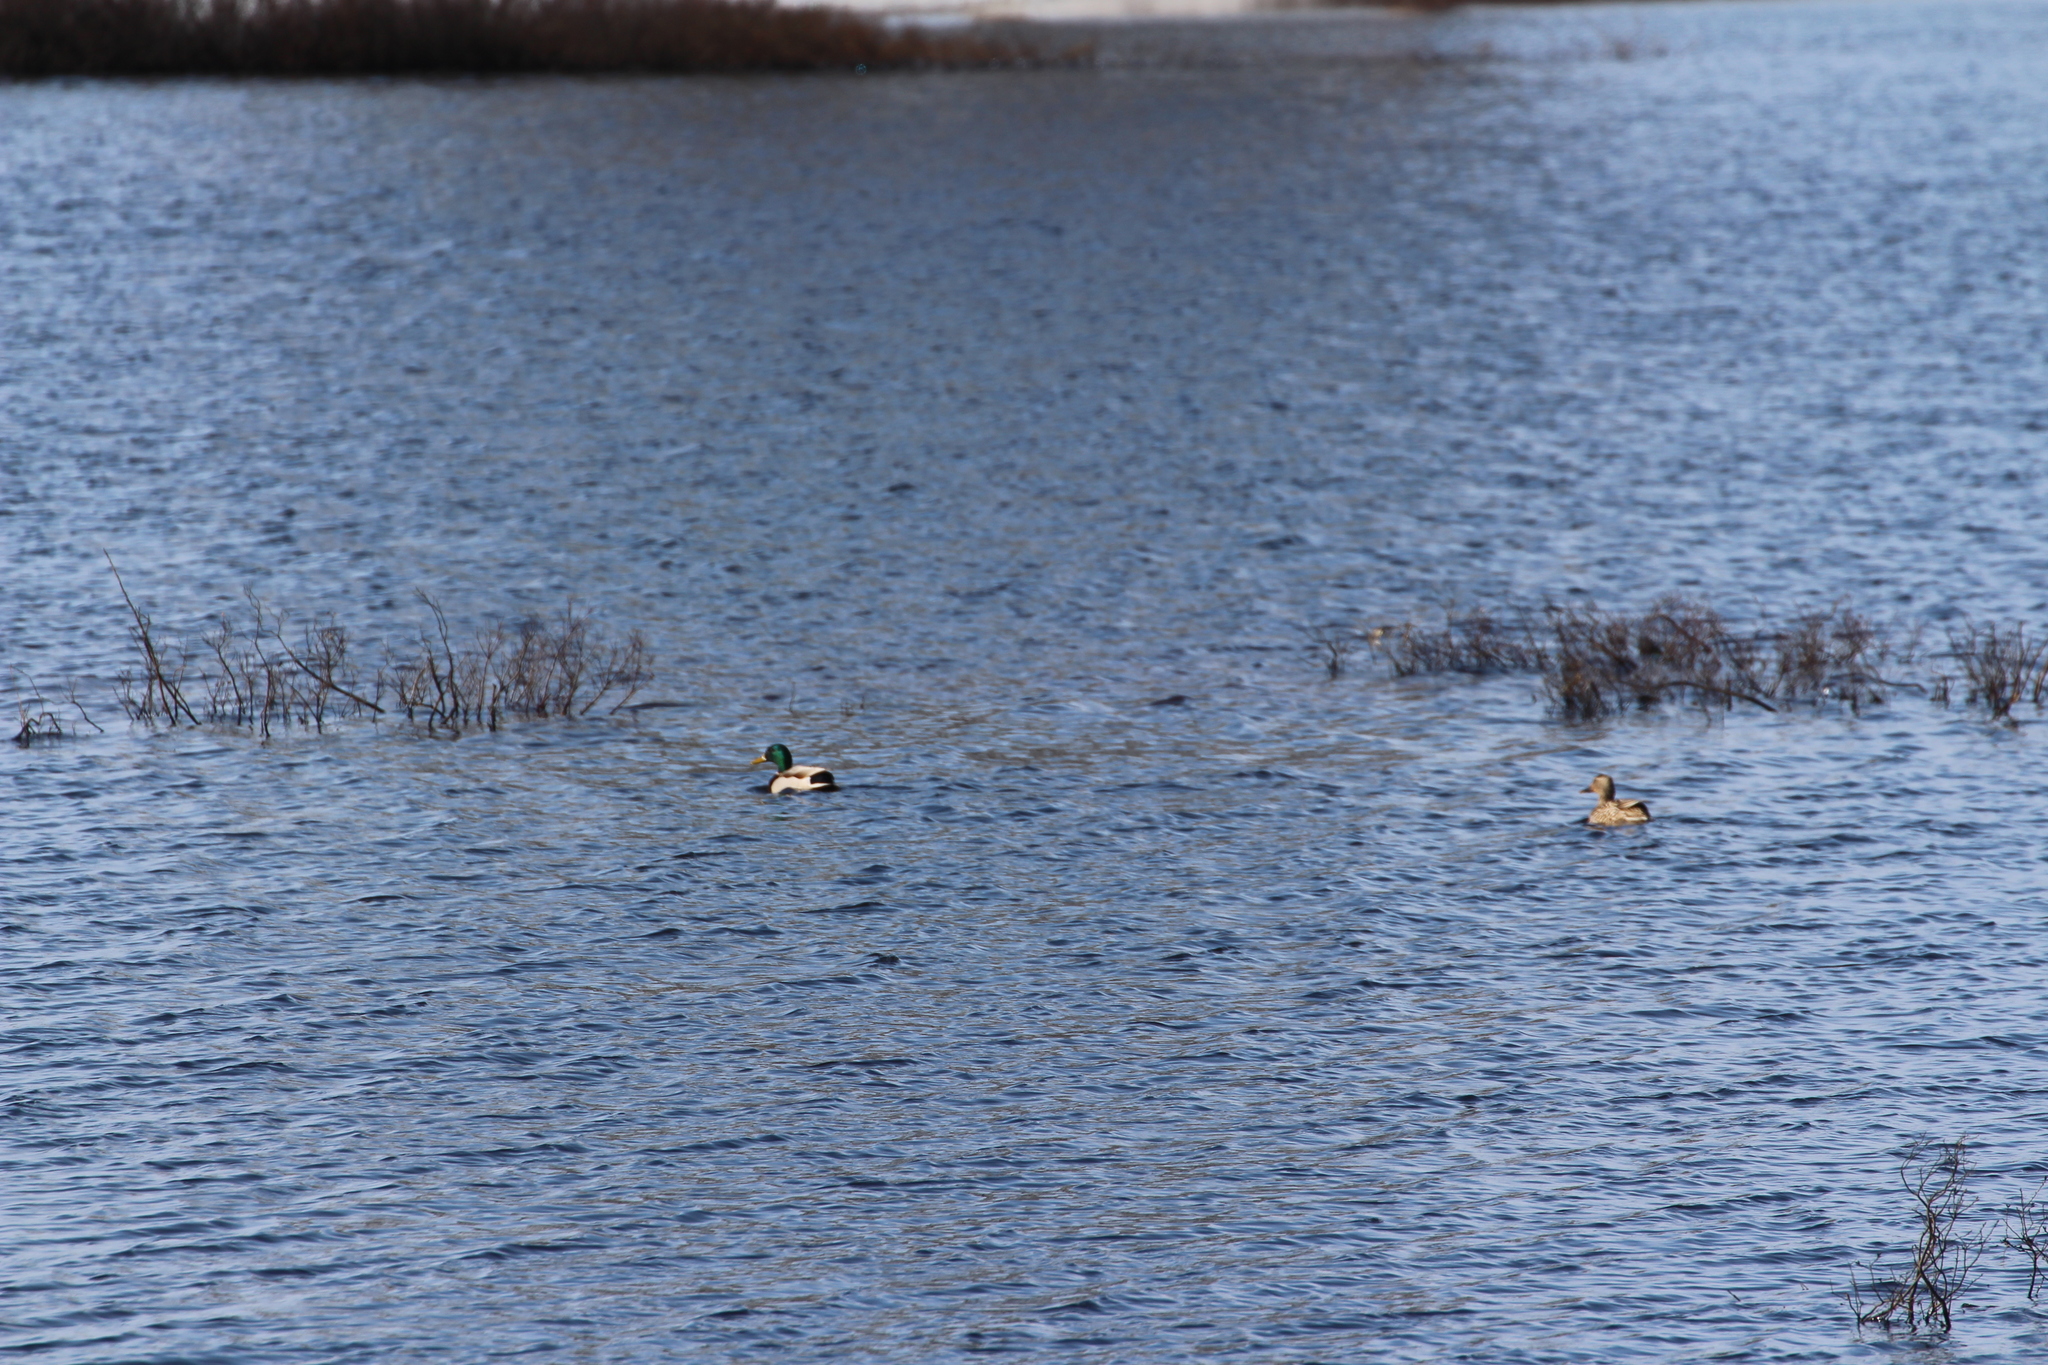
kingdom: Animalia
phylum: Chordata
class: Aves
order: Anseriformes
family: Anatidae
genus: Anas
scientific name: Anas platyrhynchos
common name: Mallard
